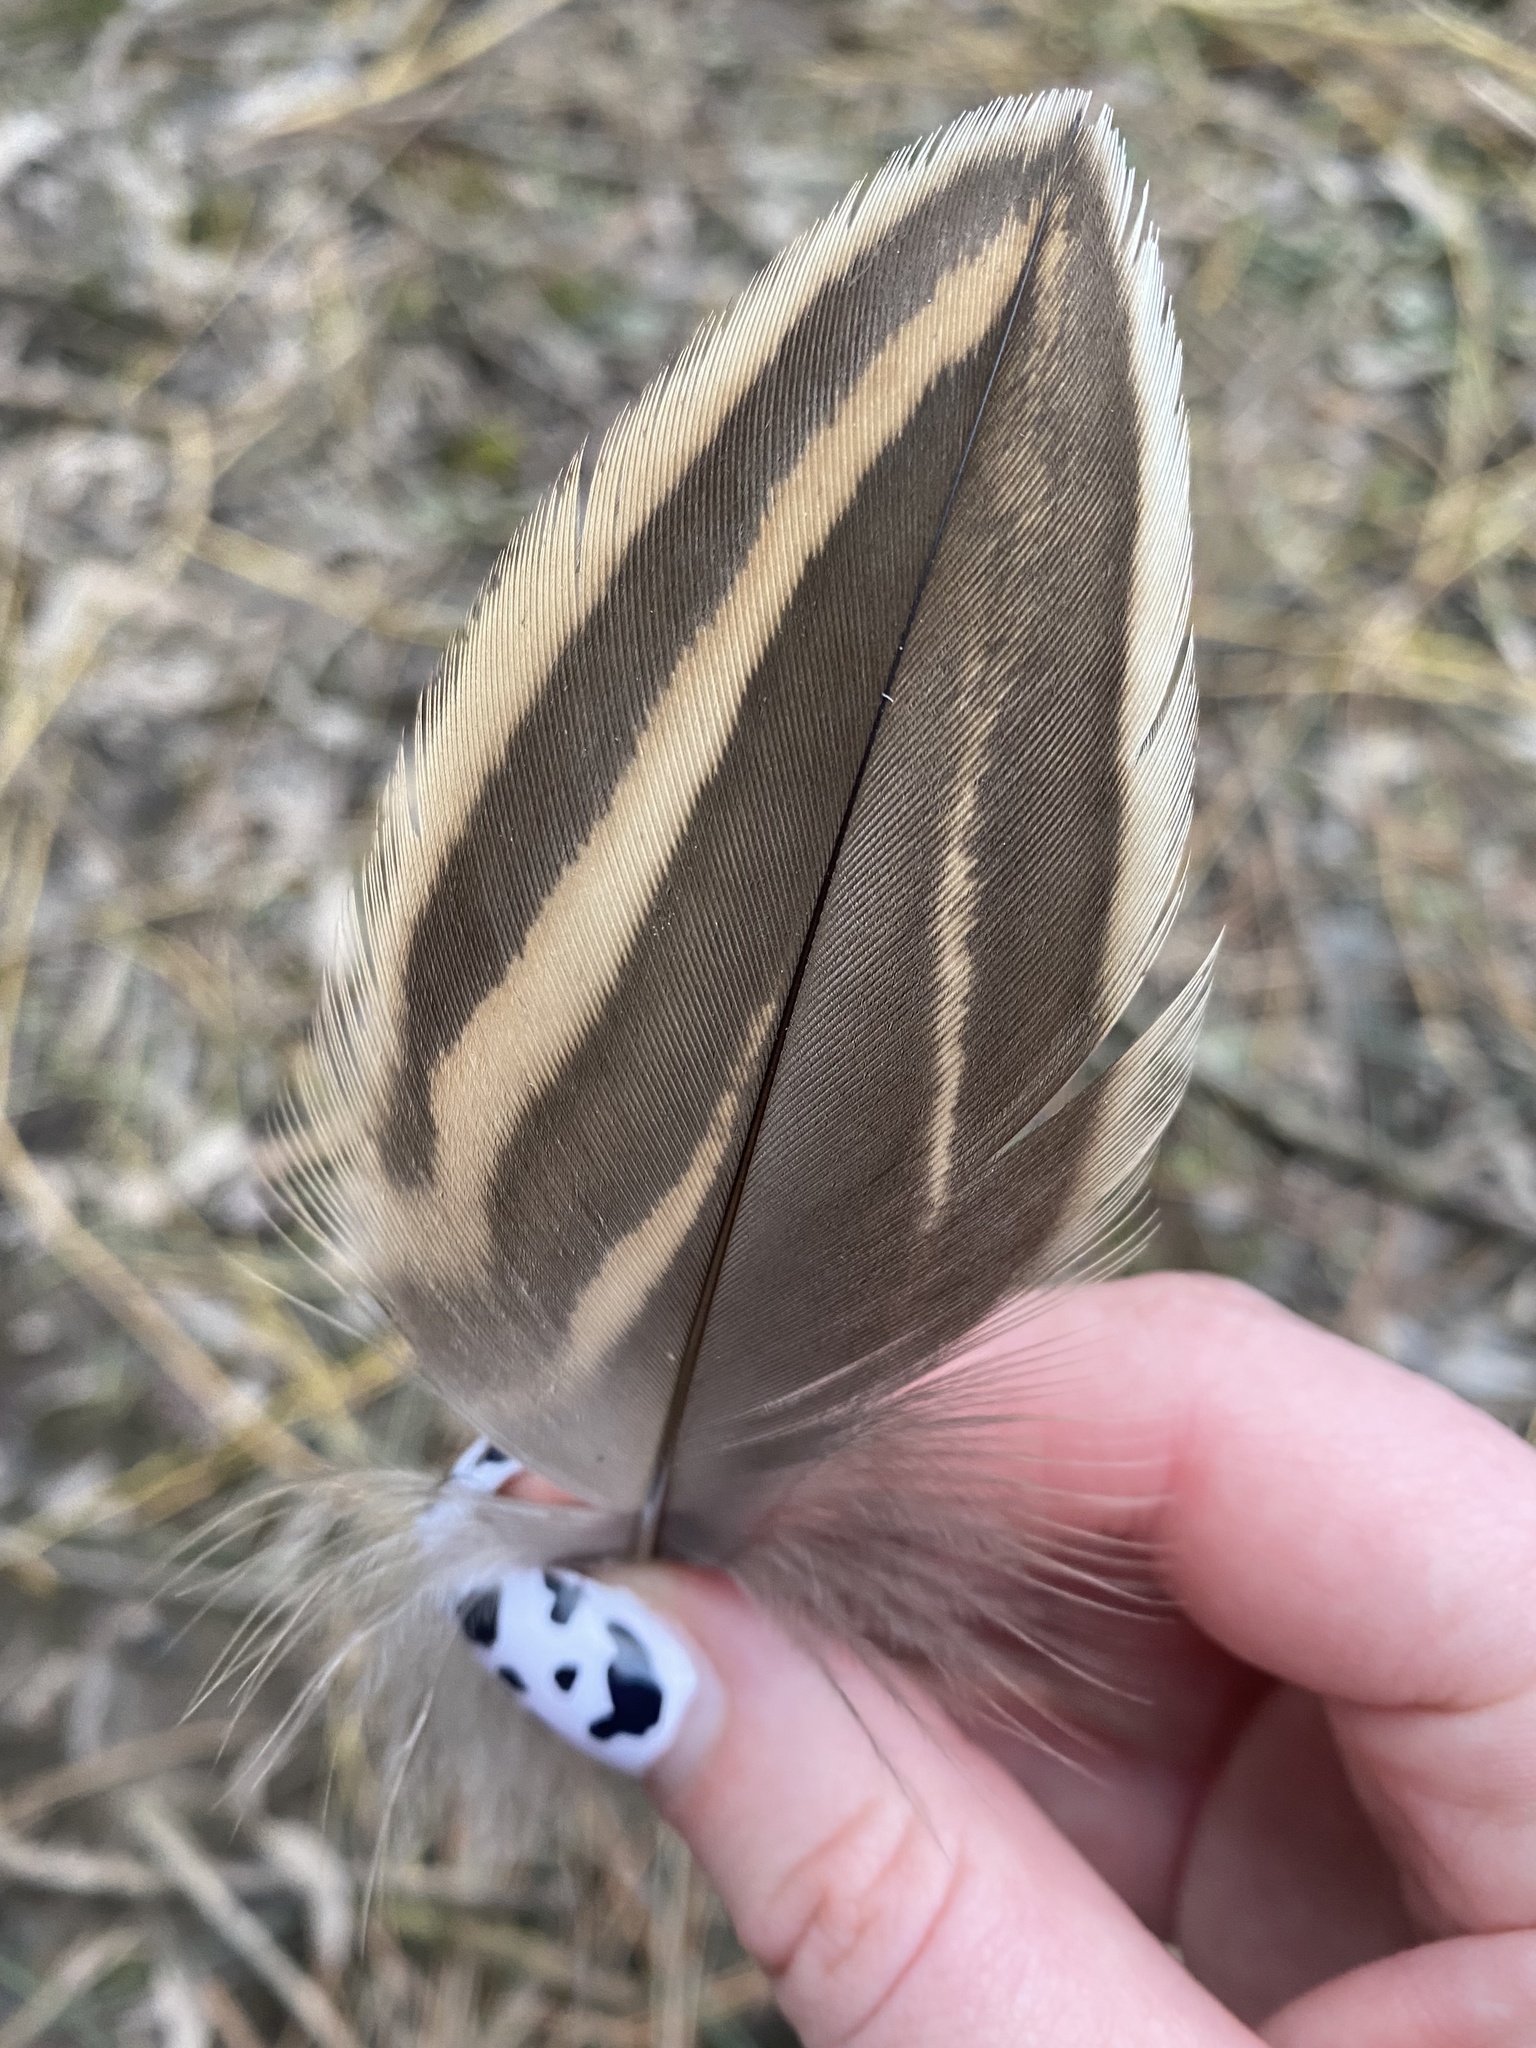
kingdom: Animalia
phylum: Chordata
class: Aves
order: Anseriformes
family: Anatidae
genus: Anas
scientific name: Anas platyrhynchos
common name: Mallard
